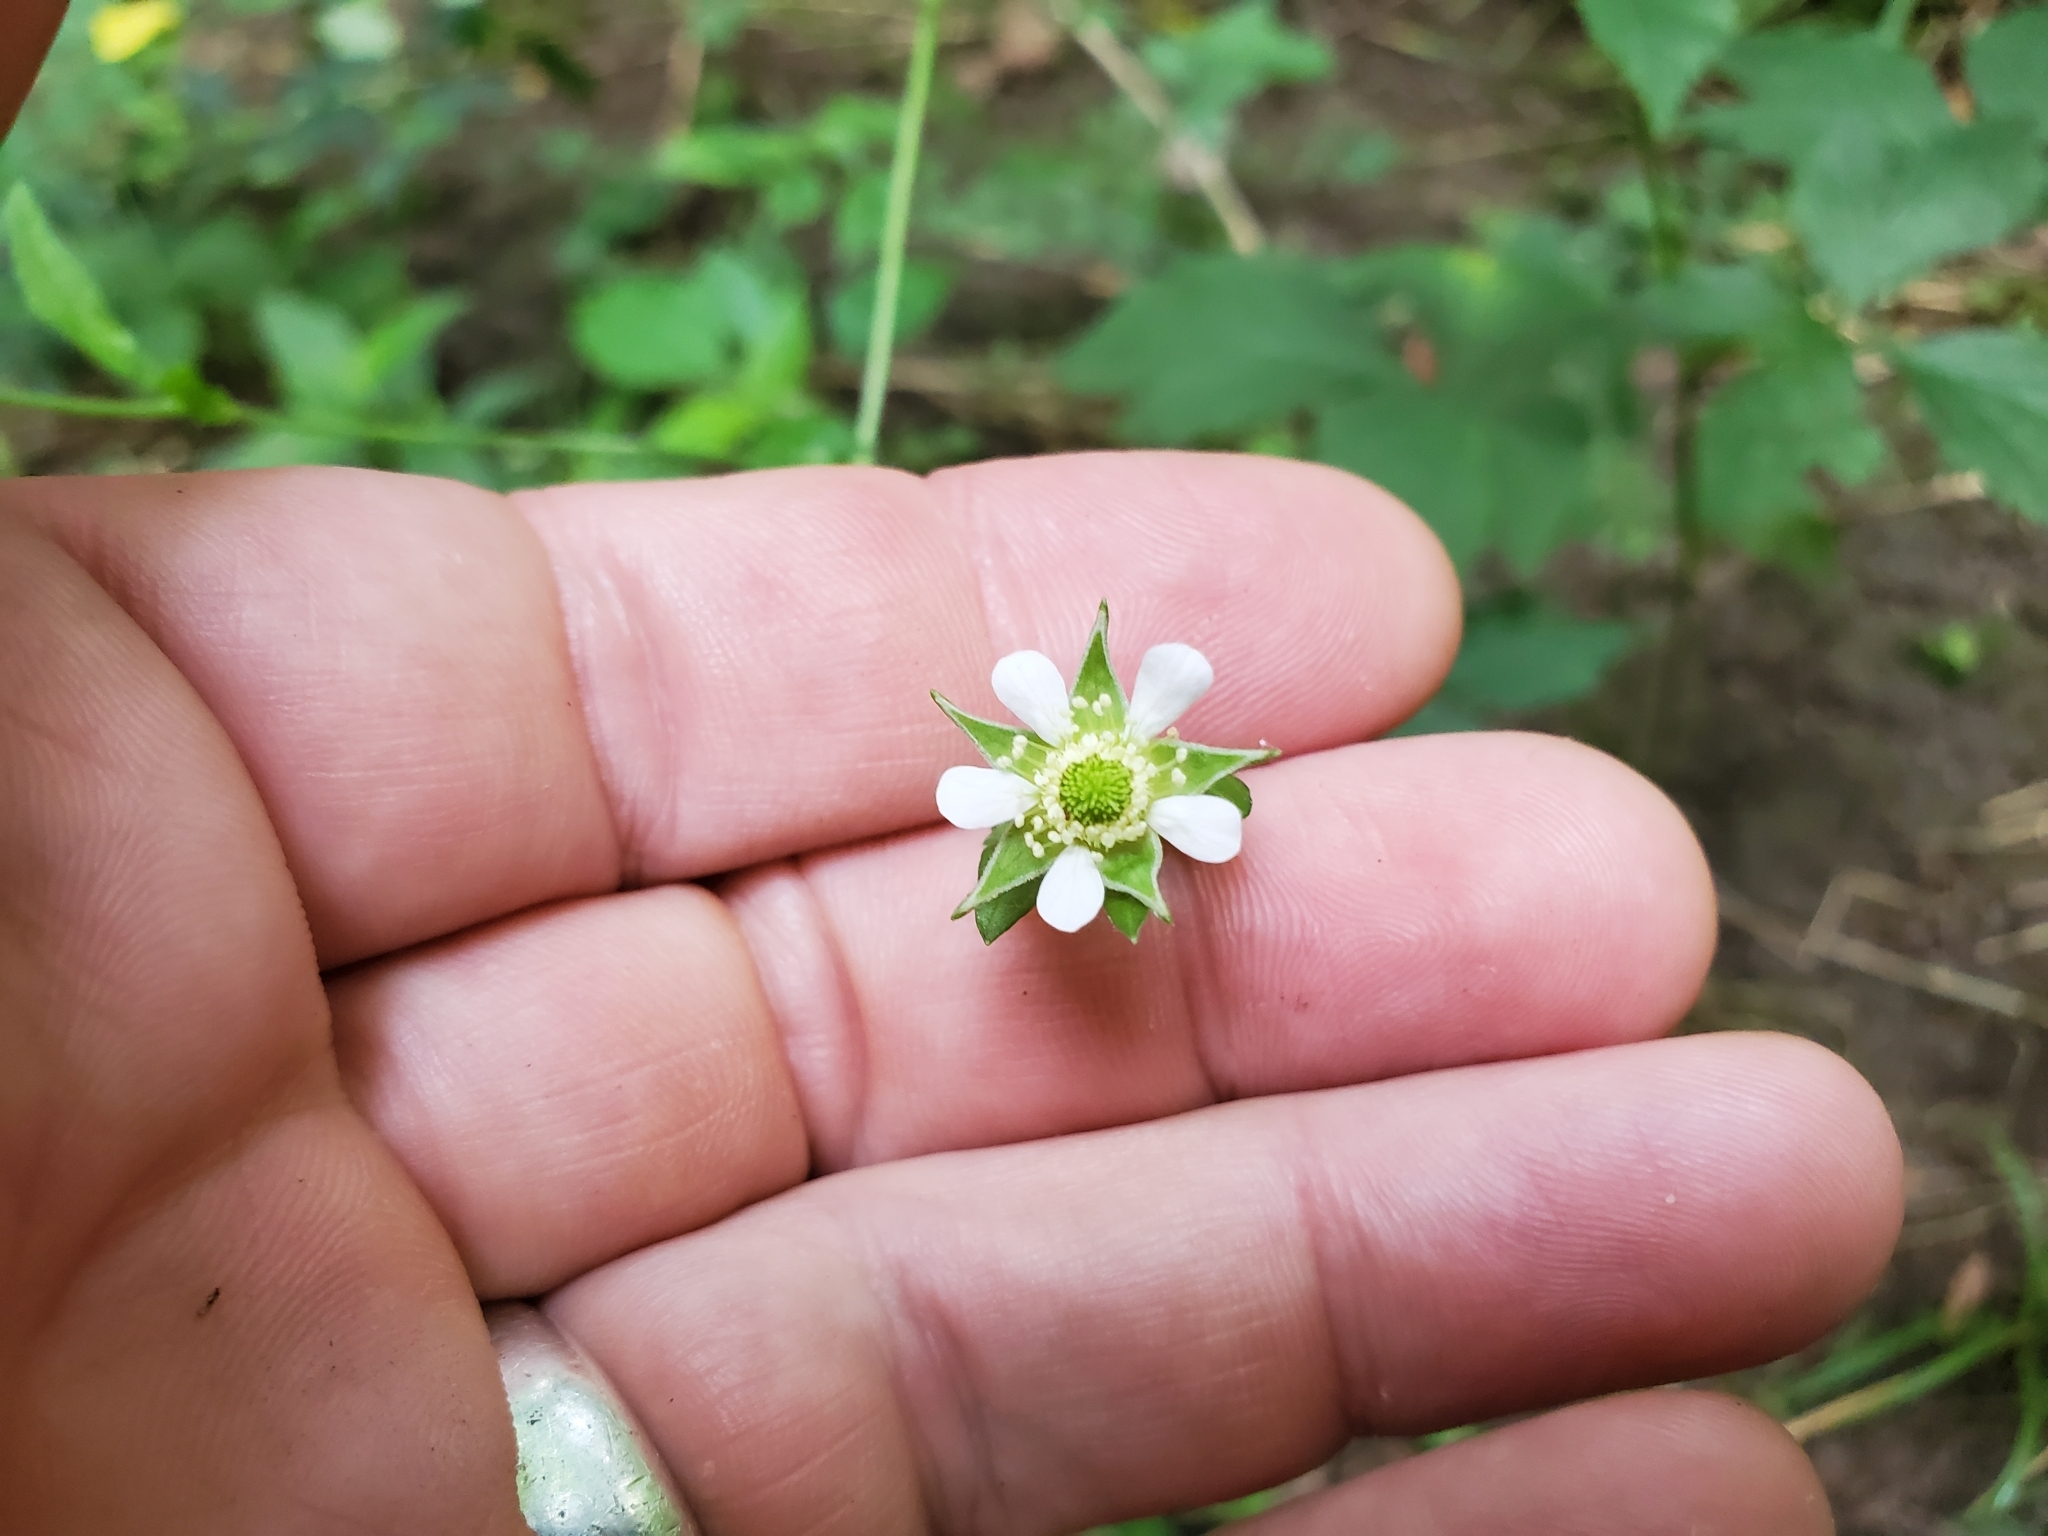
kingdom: Plantae
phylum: Tracheophyta
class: Magnoliopsida
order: Rosales
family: Rosaceae
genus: Geum
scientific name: Geum canadense
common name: White avens
